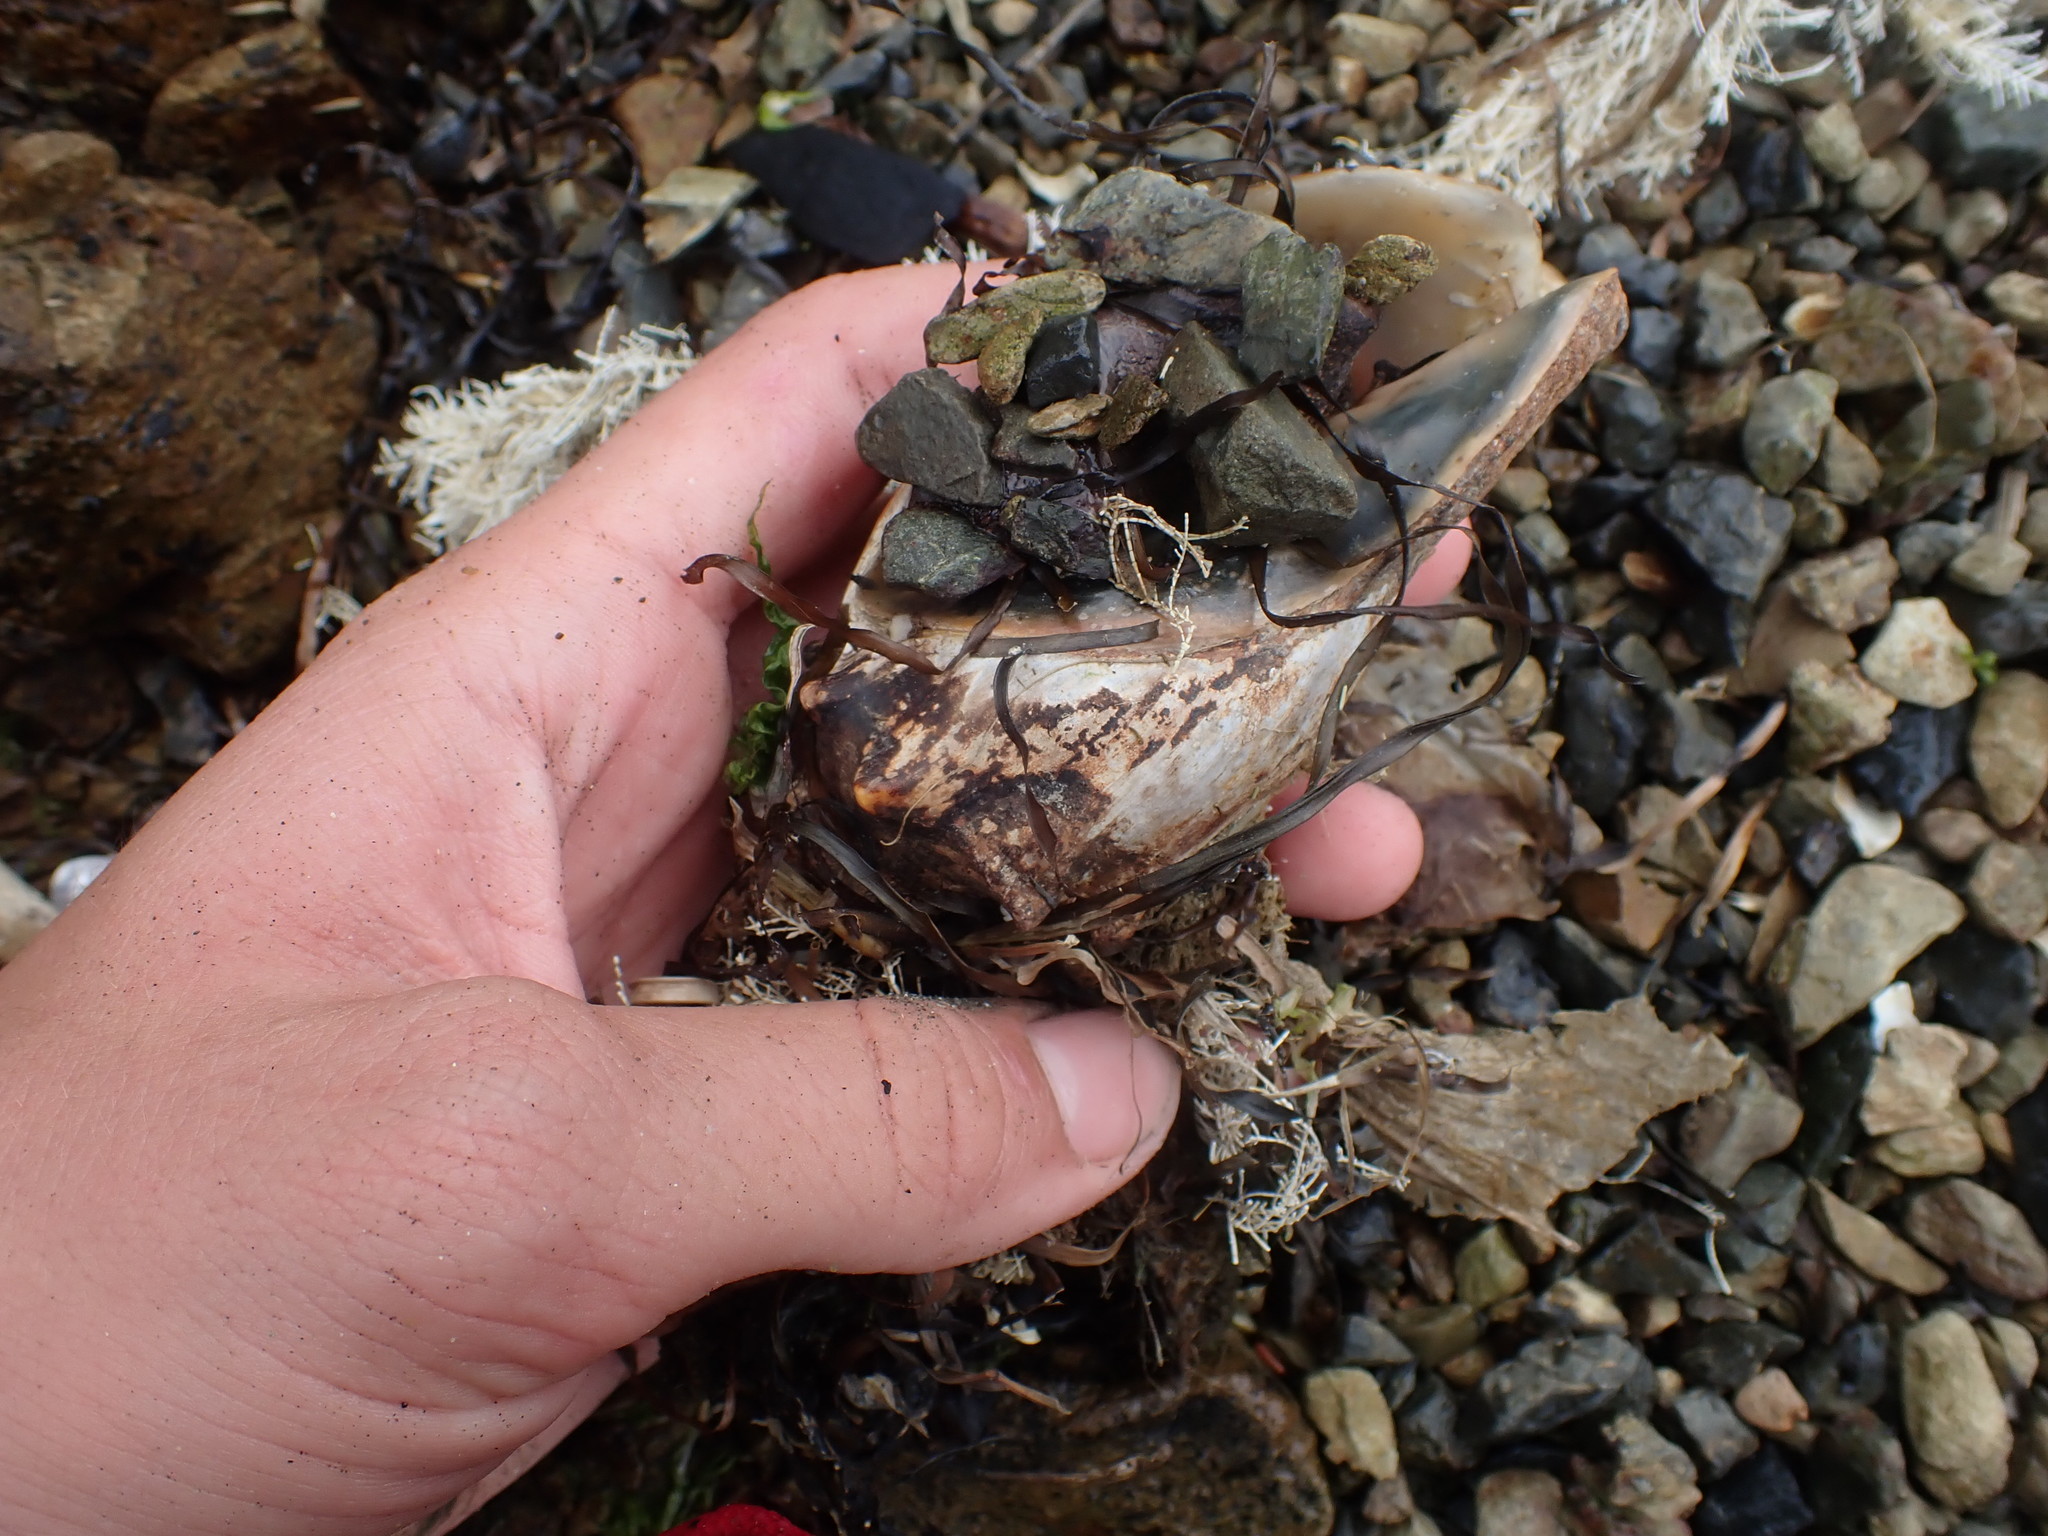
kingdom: Animalia
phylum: Mollusca
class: Gastropoda
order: Neogastropoda
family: Volutidae
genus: Alcithoe
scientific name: Alcithoe arabica
